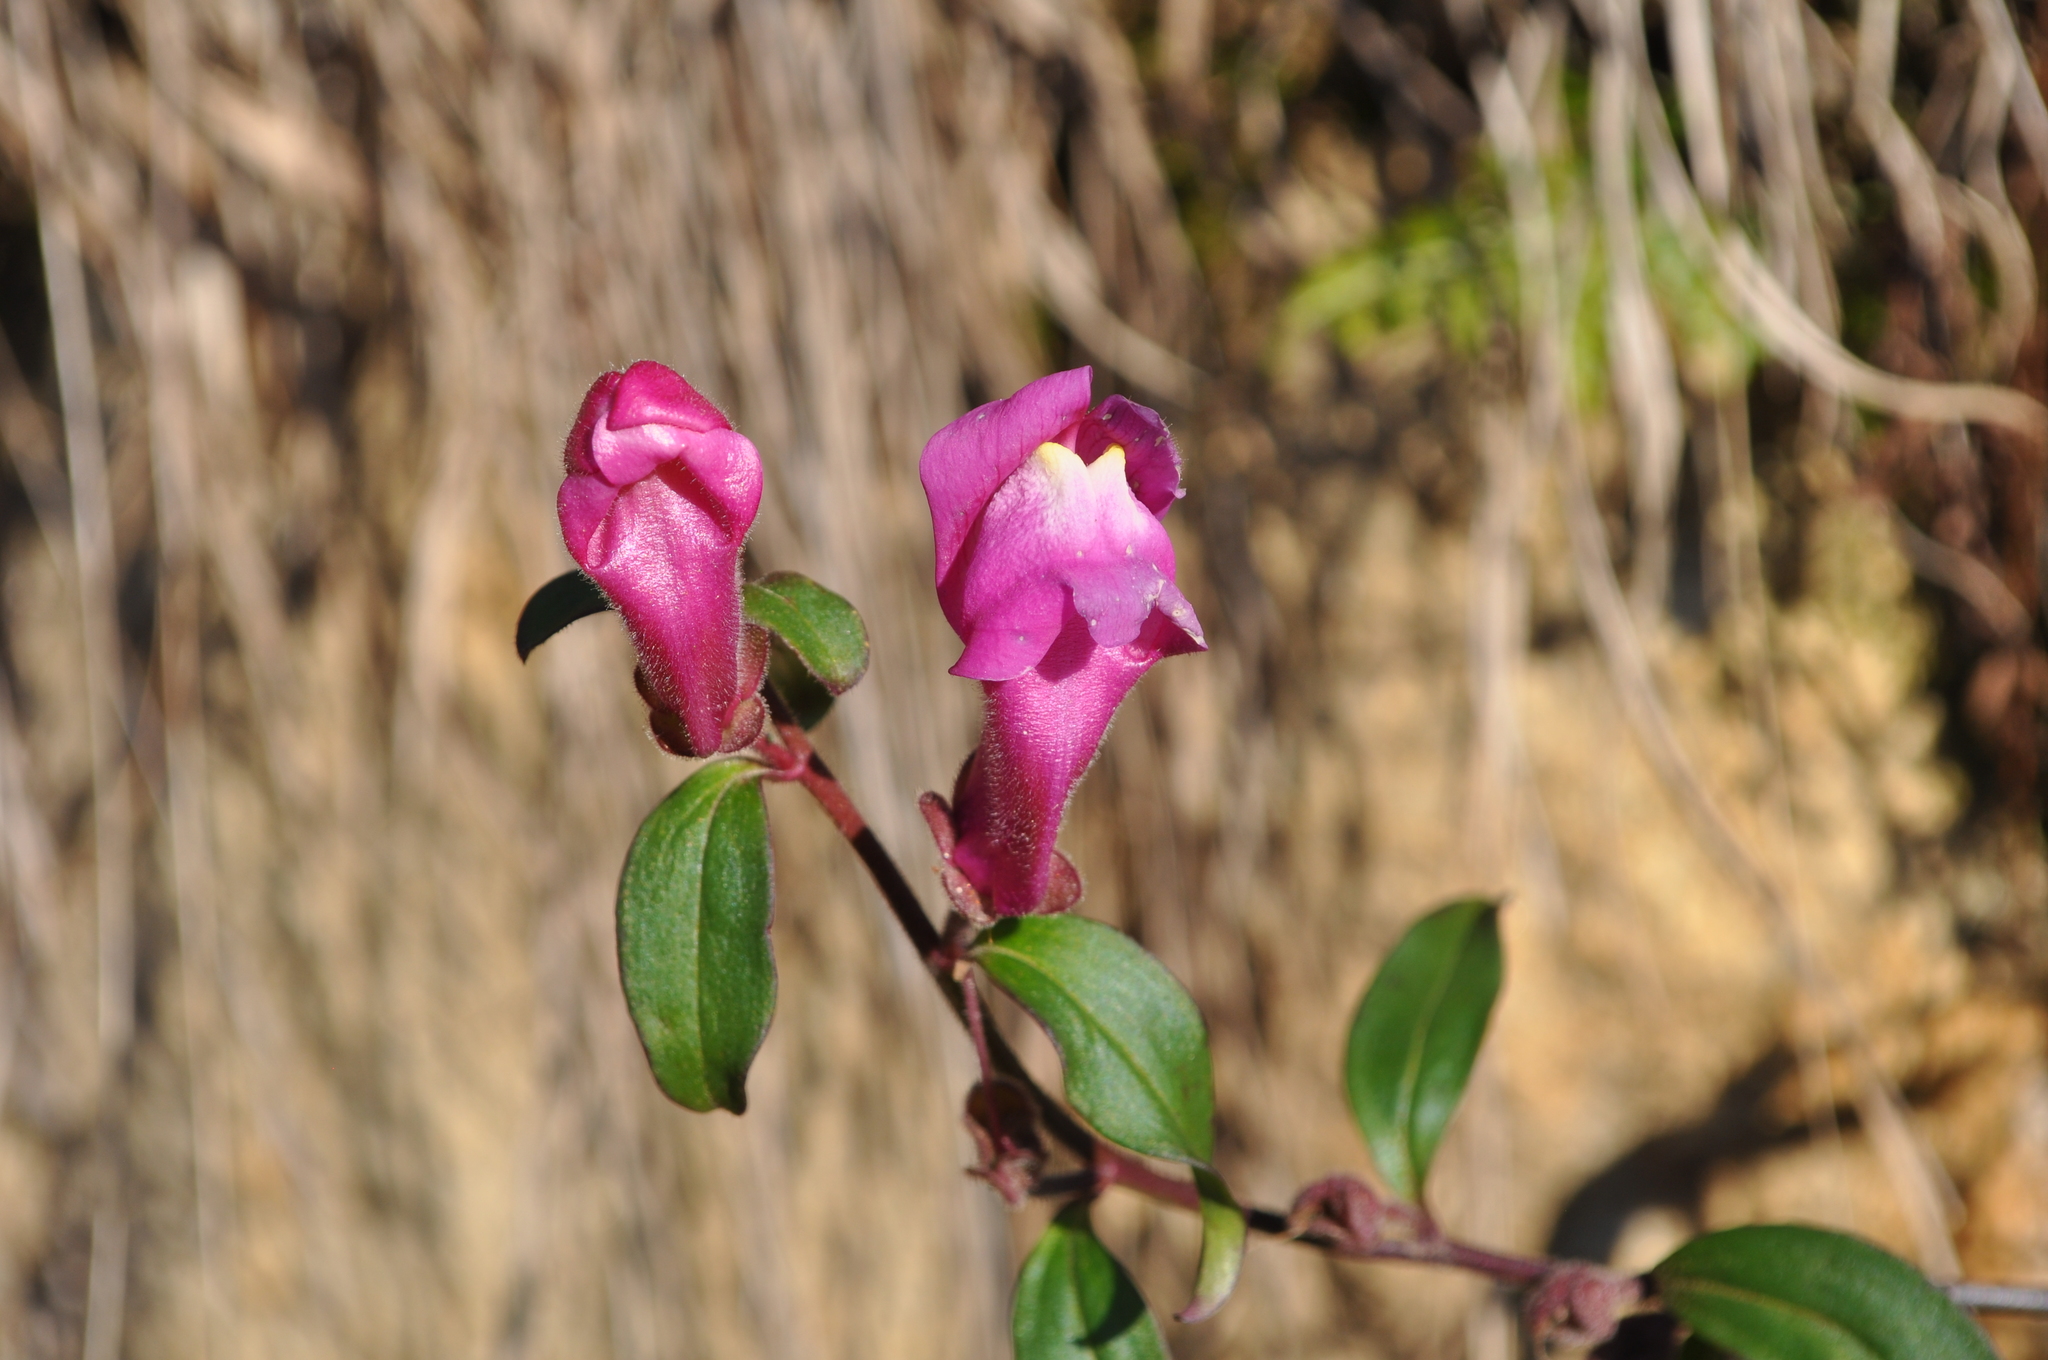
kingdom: Plantae
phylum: Tracheophyta
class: Magnoliopsida
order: Lamiales
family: Plantaginaceae
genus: Antirrhinum
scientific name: Antirrhinum majus
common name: Snapdragon
